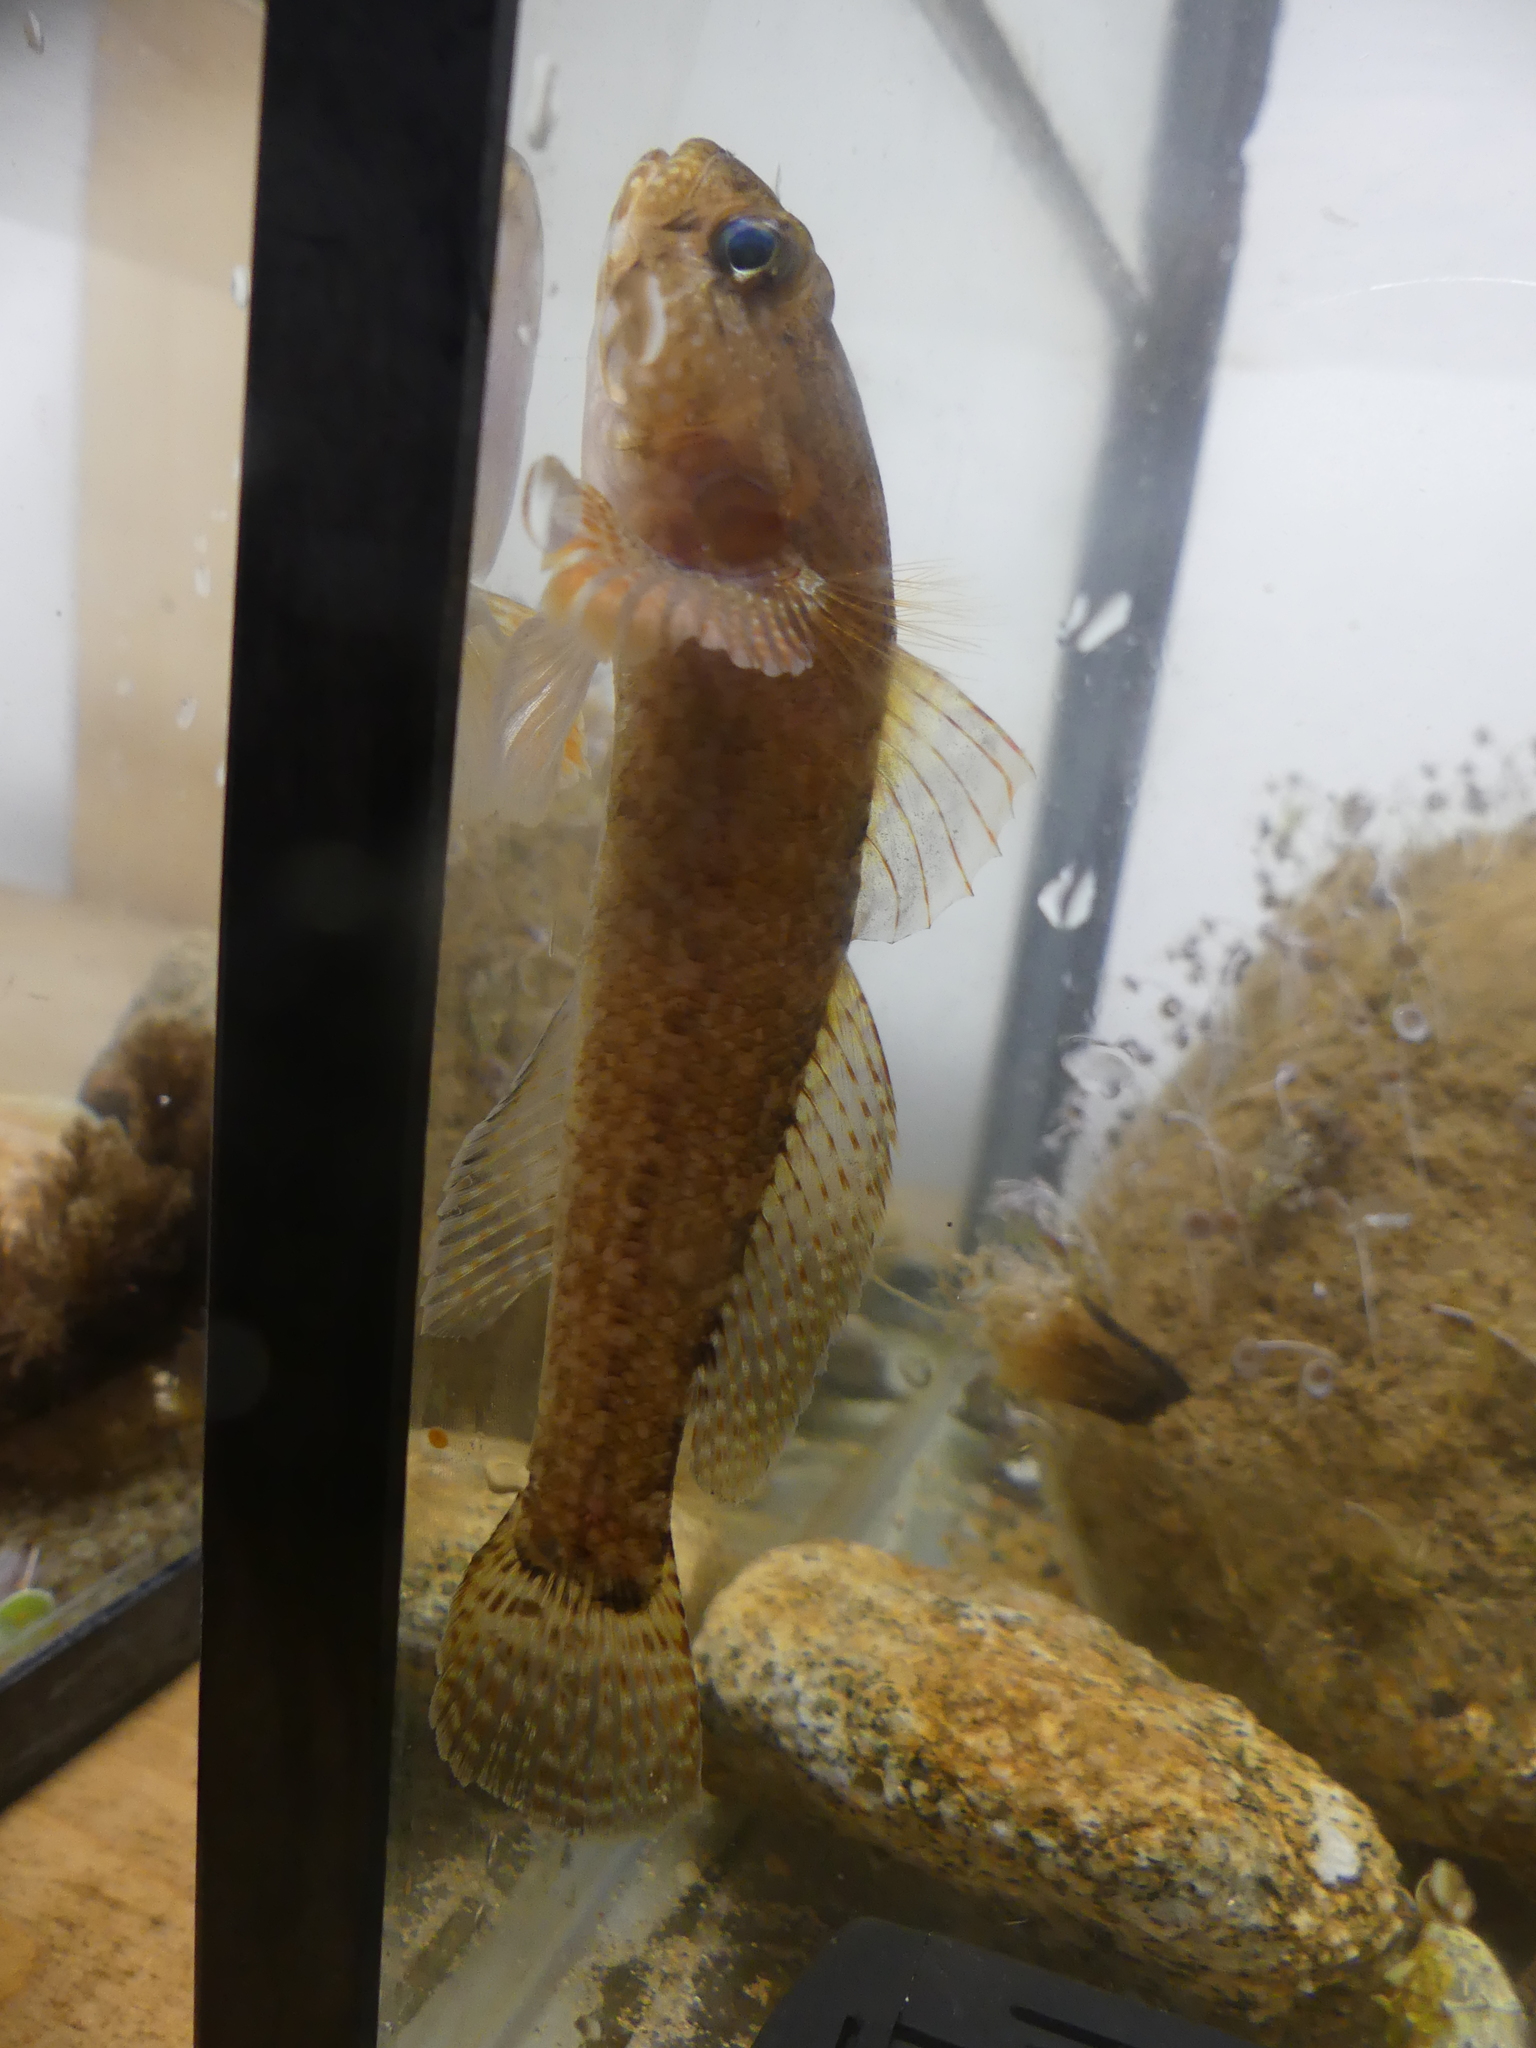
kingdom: Animalia
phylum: Chordata
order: Perciformes
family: Gobiidae
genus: Gobius
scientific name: Gobius paganellus
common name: Rock goby
